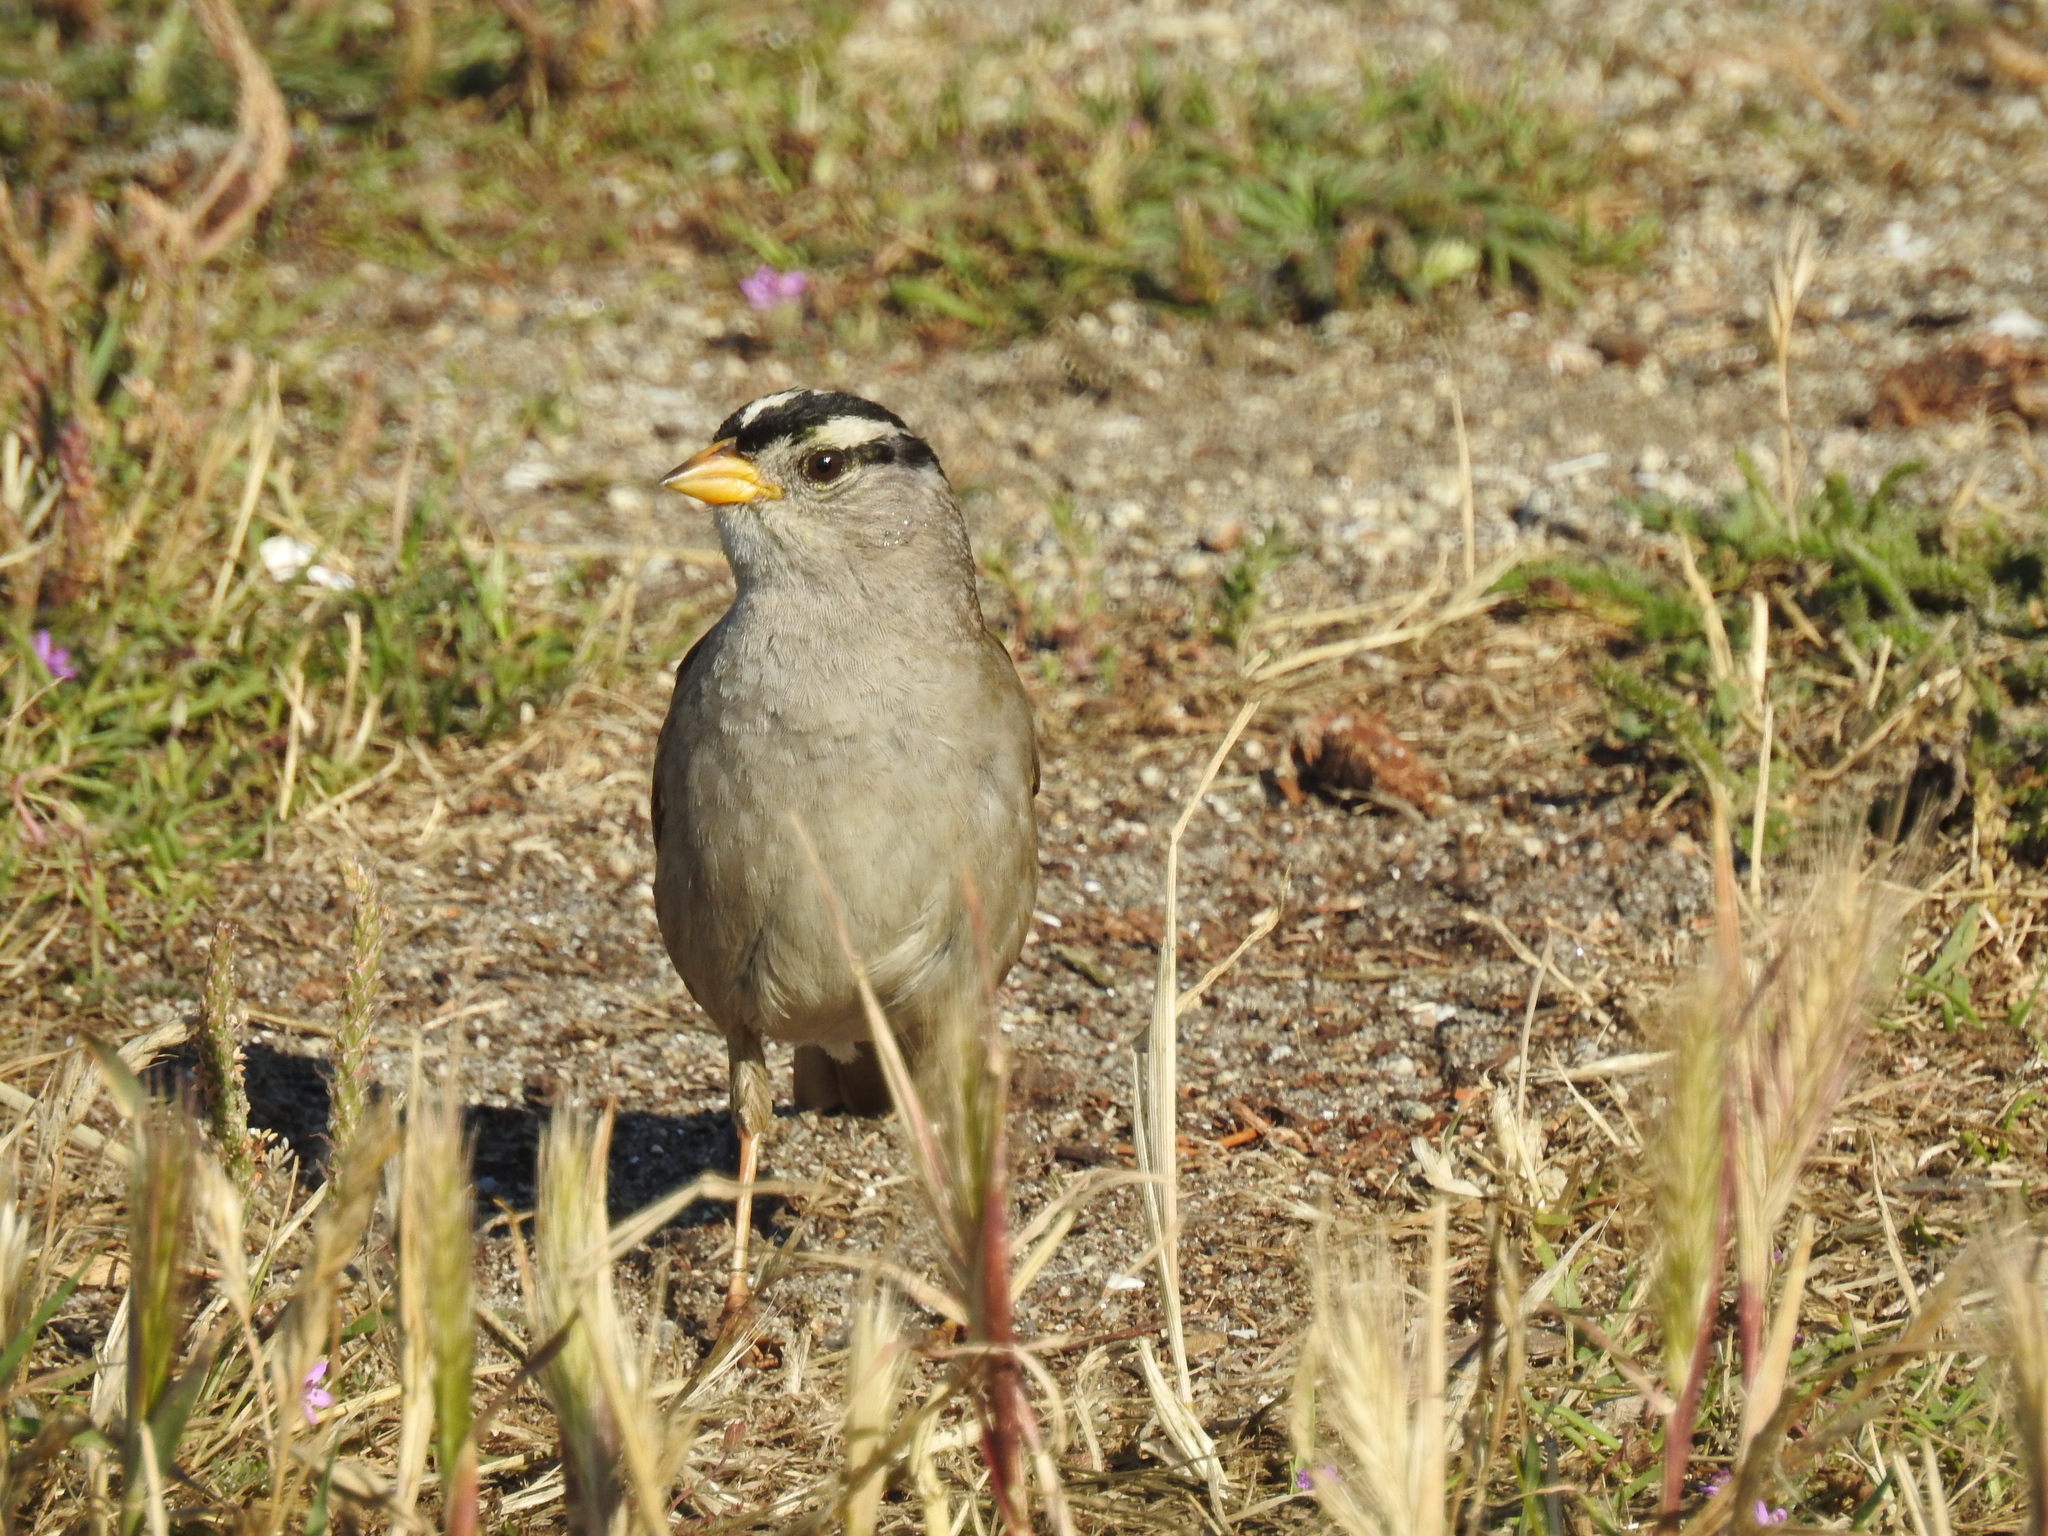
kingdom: Animalia
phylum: Chordata
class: Aves
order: Passeriformes
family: Passerellidae
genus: Zonotrichia
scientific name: Zonotrichia leucophrys
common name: White-crowned sparrow
